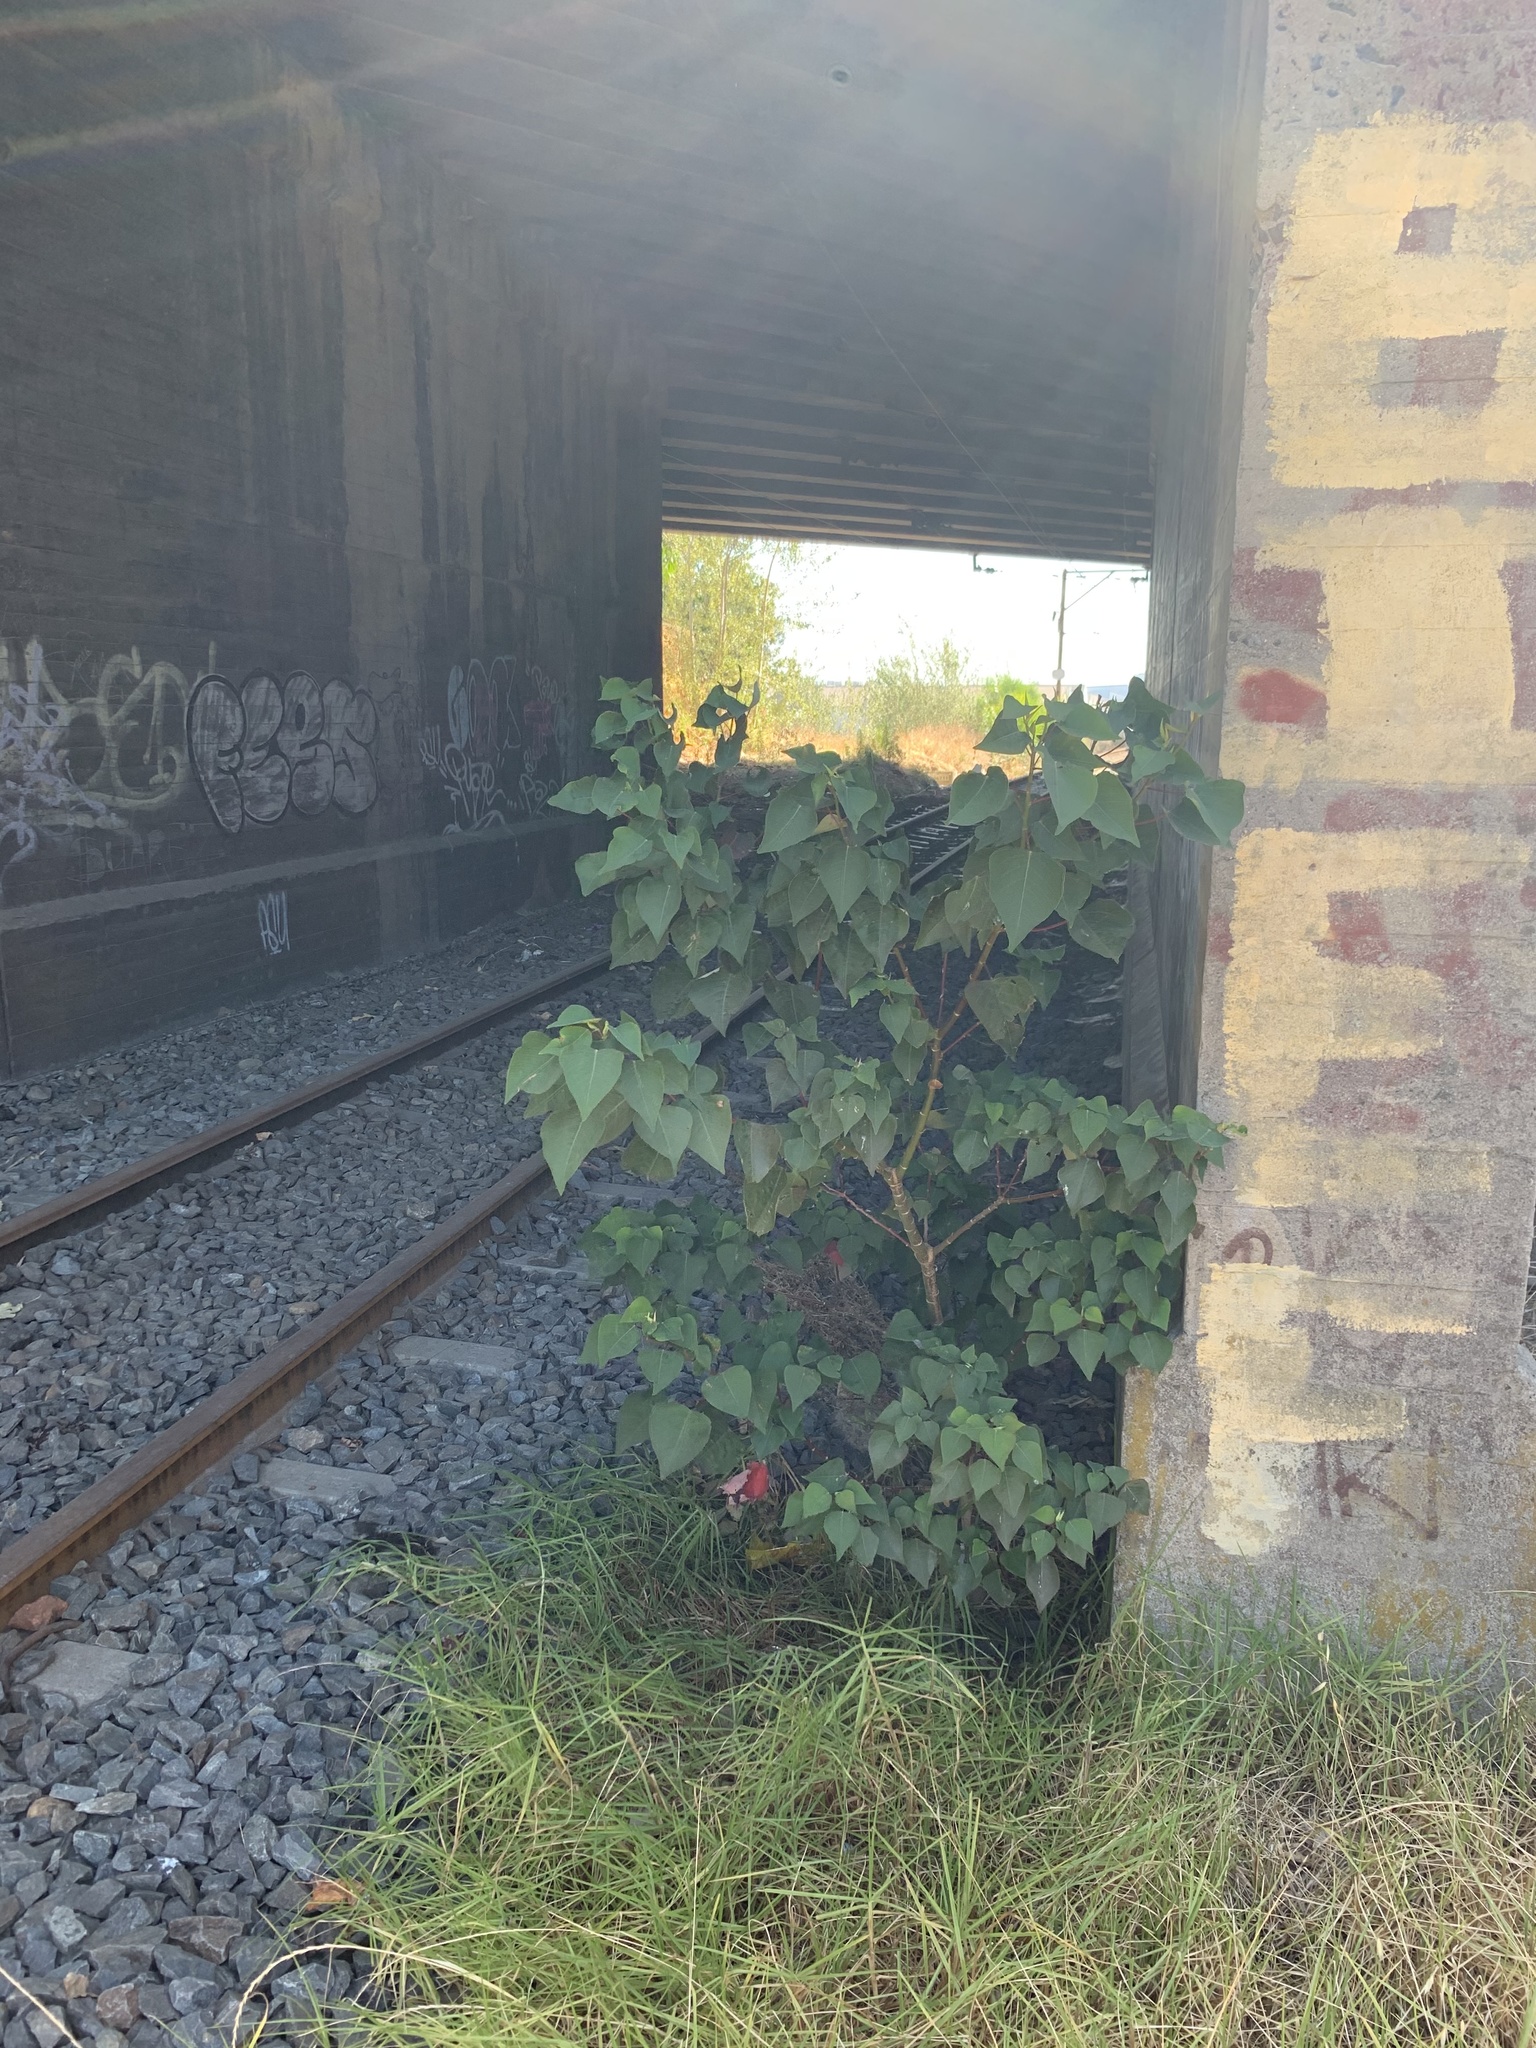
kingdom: Plantae
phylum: Tracheophyta
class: Magnoliopsida
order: Malpighiales
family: Euphorbiaceae
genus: Homalanthus
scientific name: Homalanthus populifolius
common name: Queensland poplar
